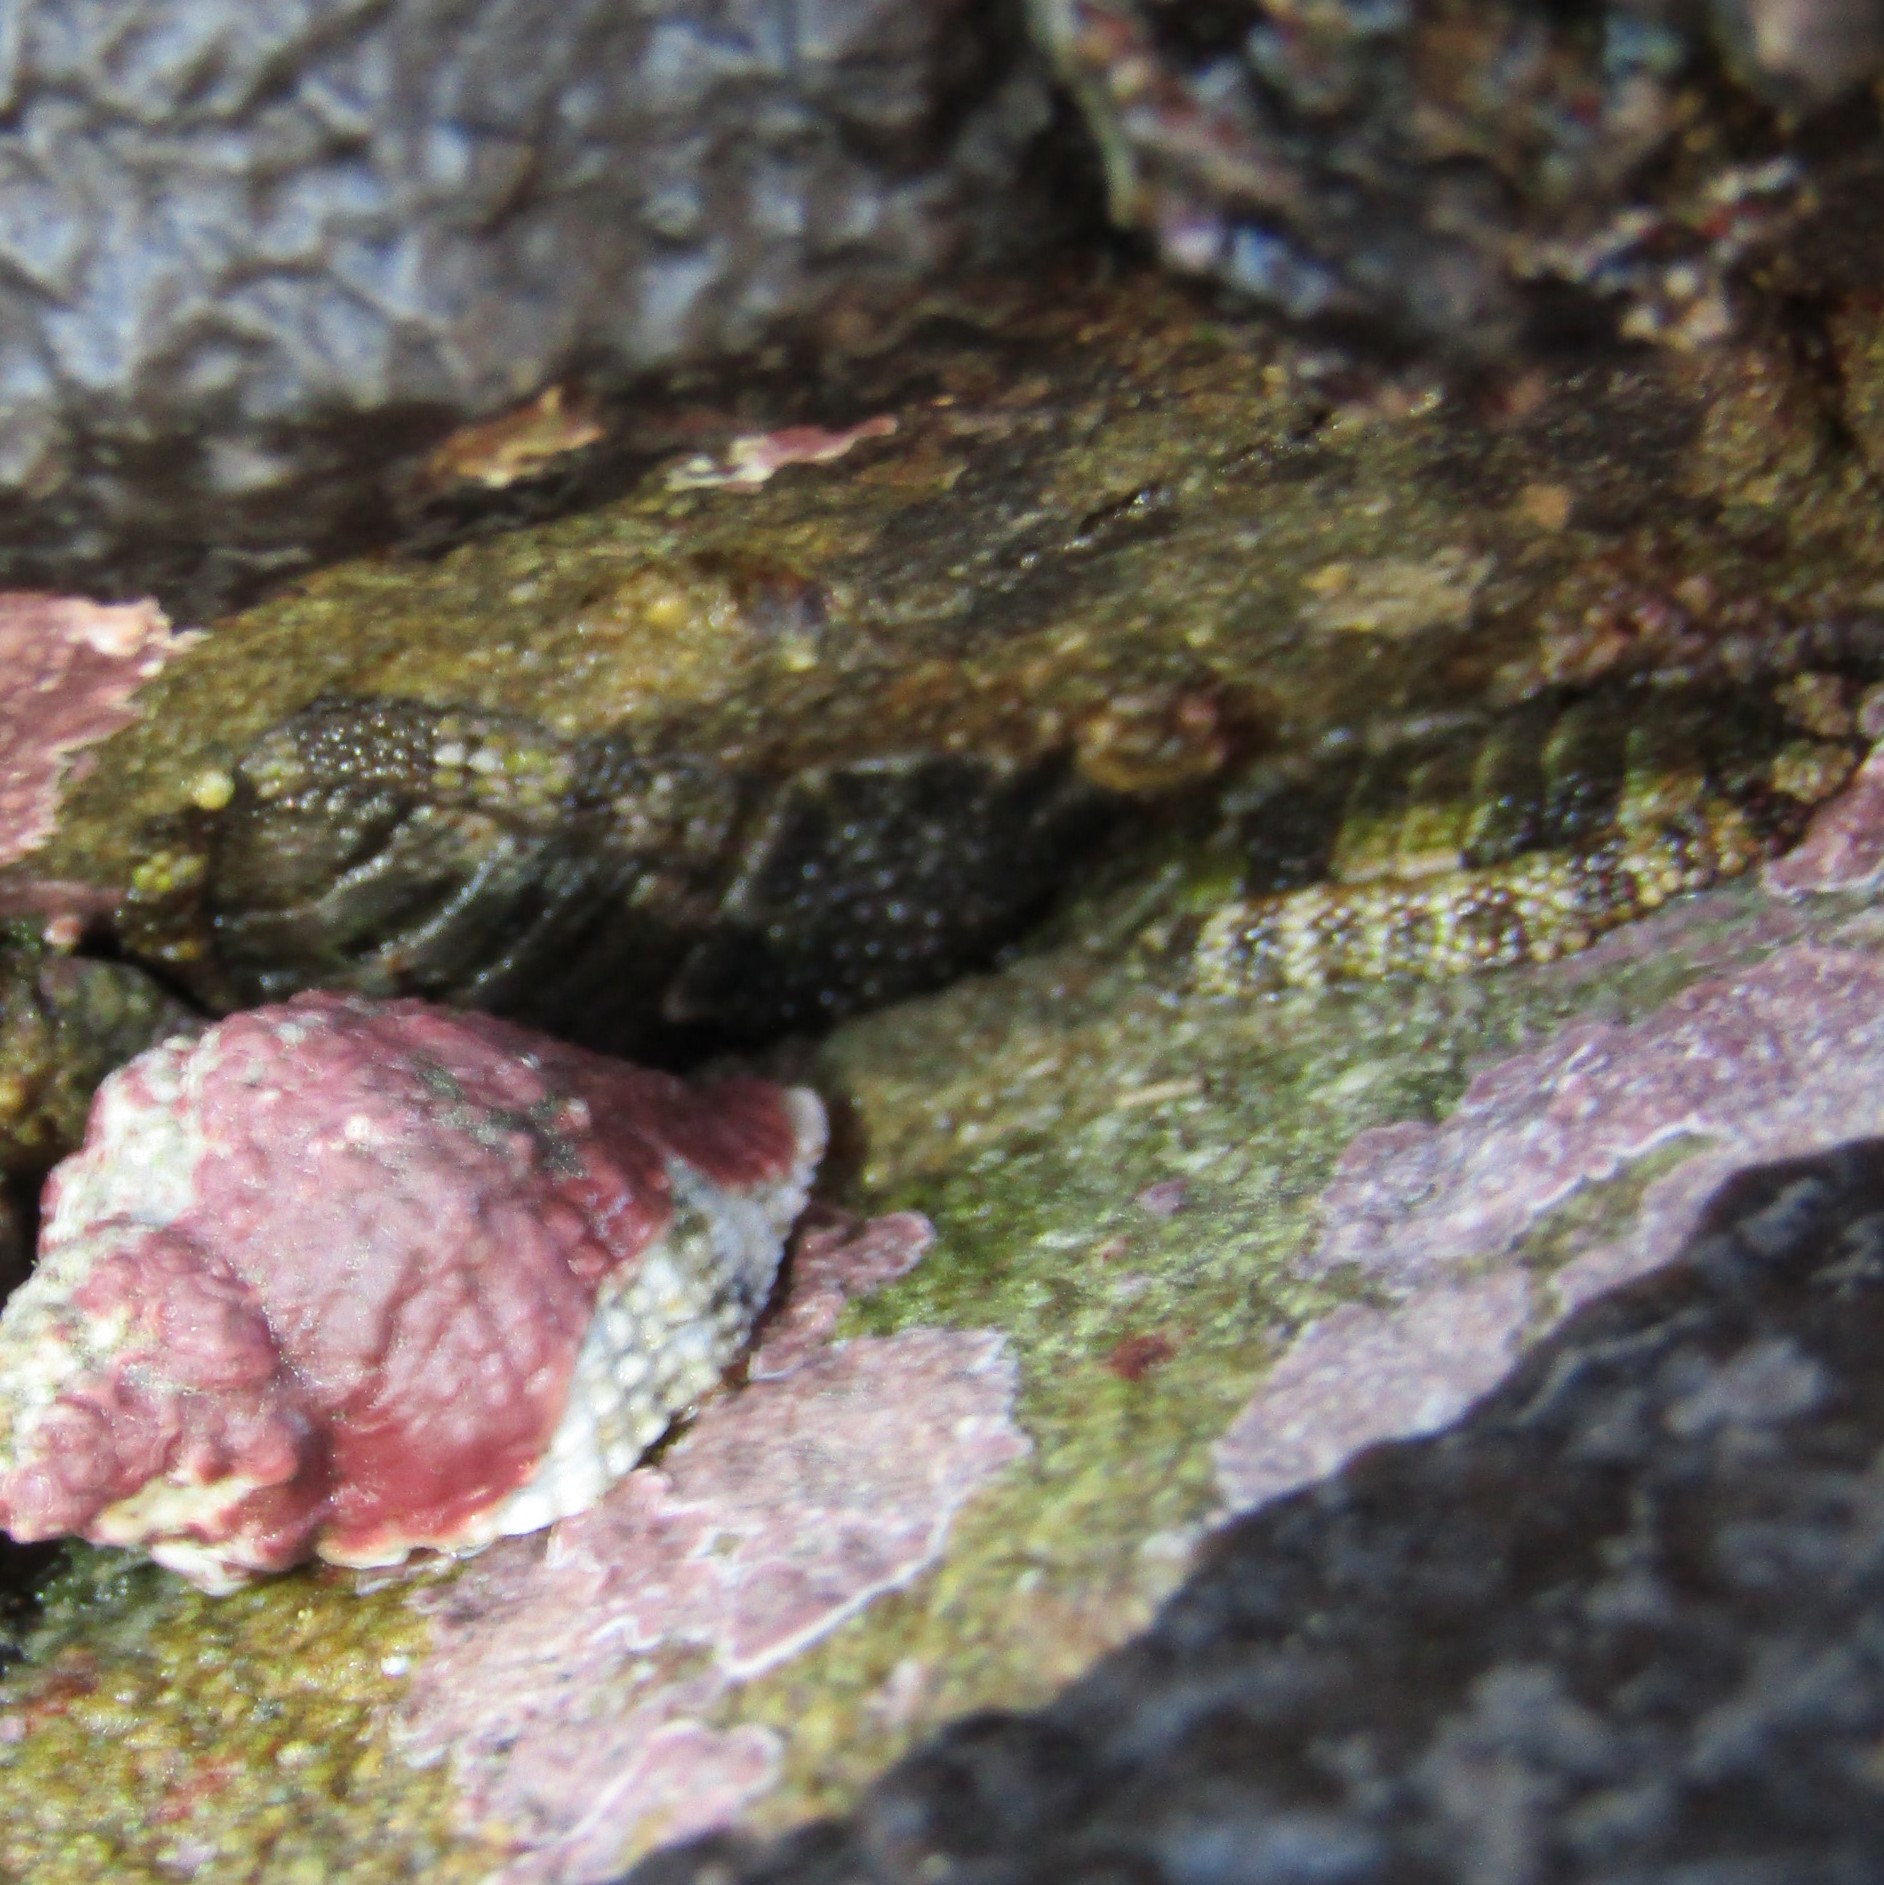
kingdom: Animalia
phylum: Mollusca
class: Polyplacophora
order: Chitonida
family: Chitonidae
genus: Sypharochiton
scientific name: Sypharochiton pelliserpentis
